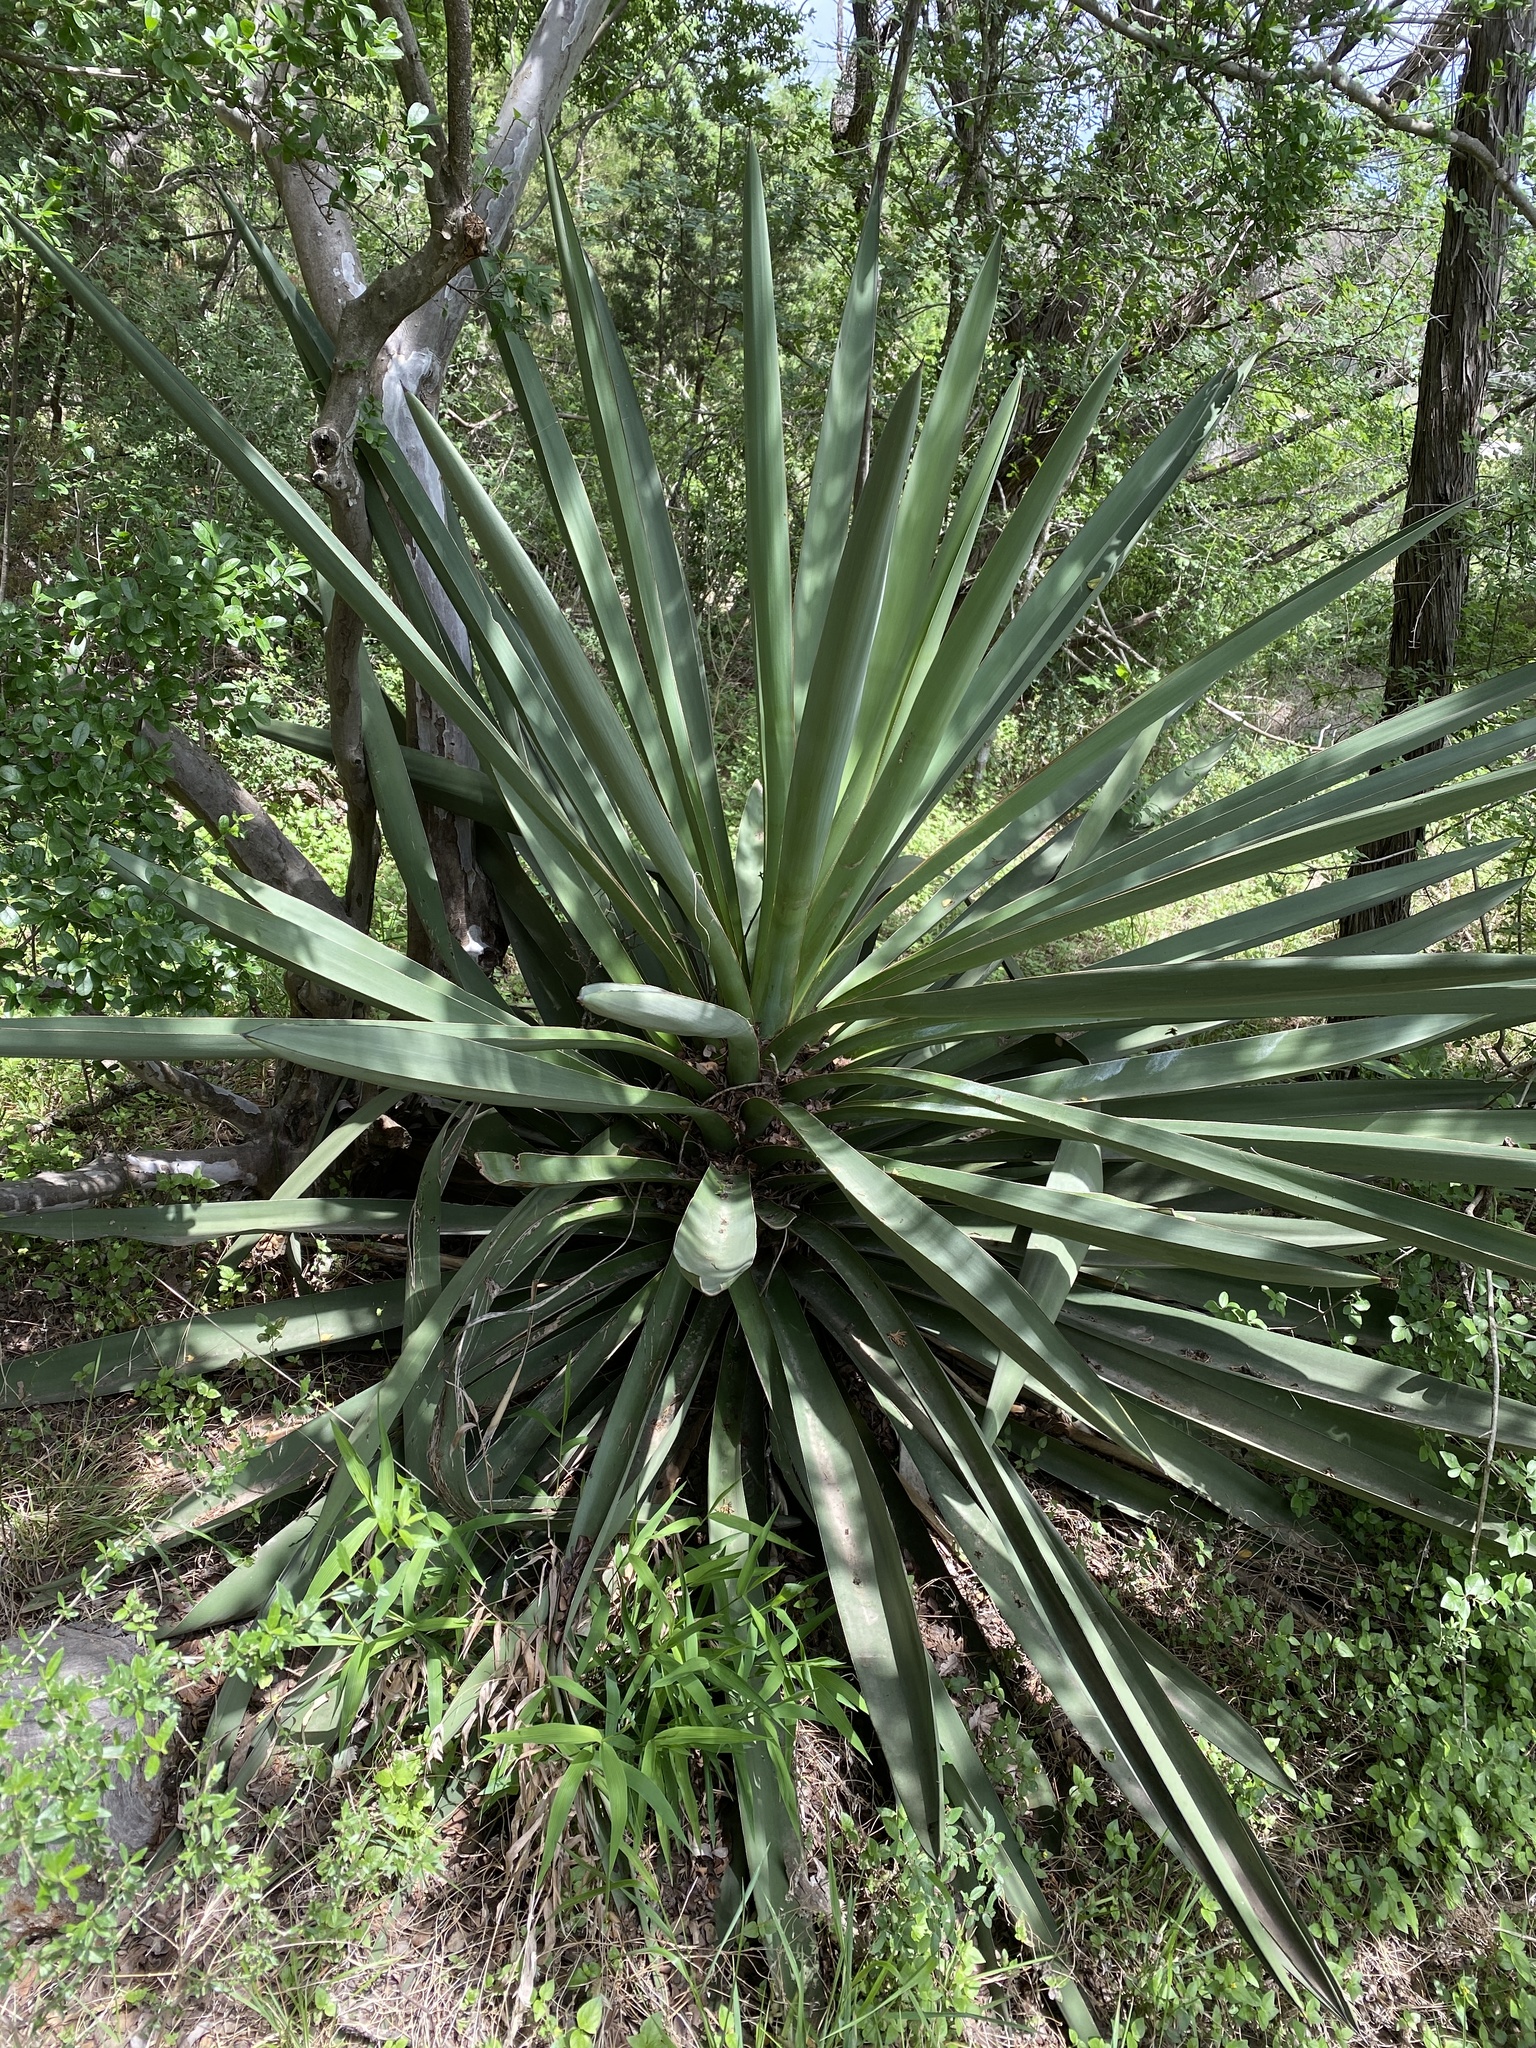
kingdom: Plantae
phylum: Tracheophyta
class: Liliopsida
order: Asparagales
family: Asparagaceae
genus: Yucca
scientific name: Yucca treculiana
